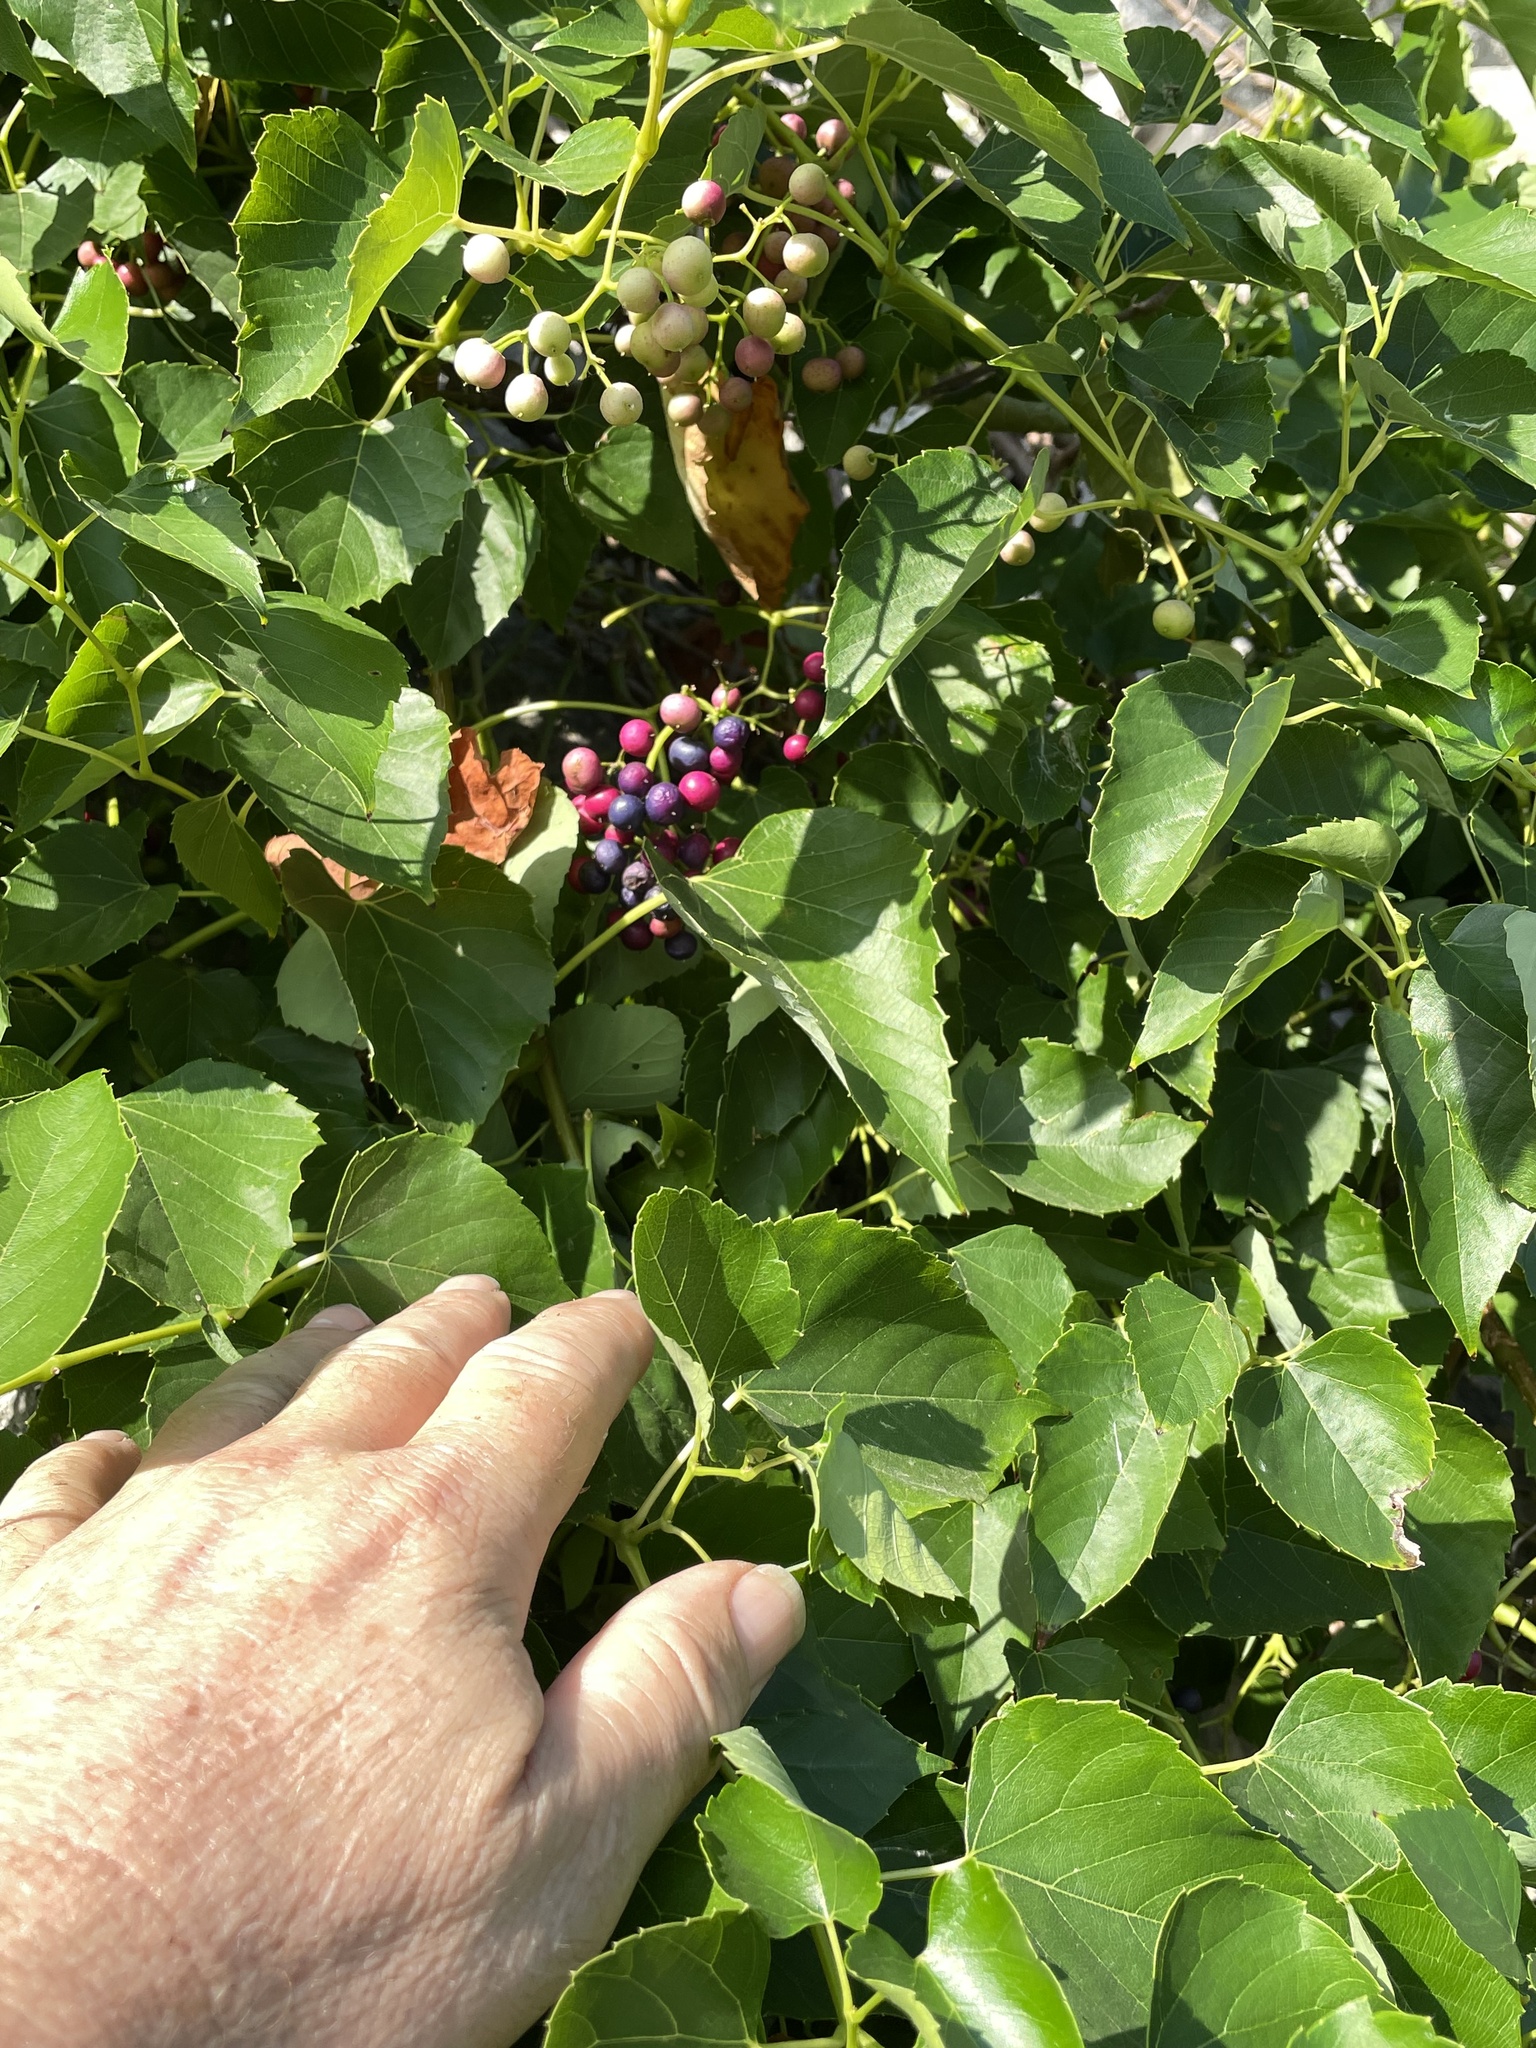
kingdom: Plantae
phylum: Tracheophyta
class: Magnoliopsida
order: Vitales
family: Vitaceae
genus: Ampelopsis
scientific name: Ampelopsis cordata
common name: Heart-leaf ampelopsis
